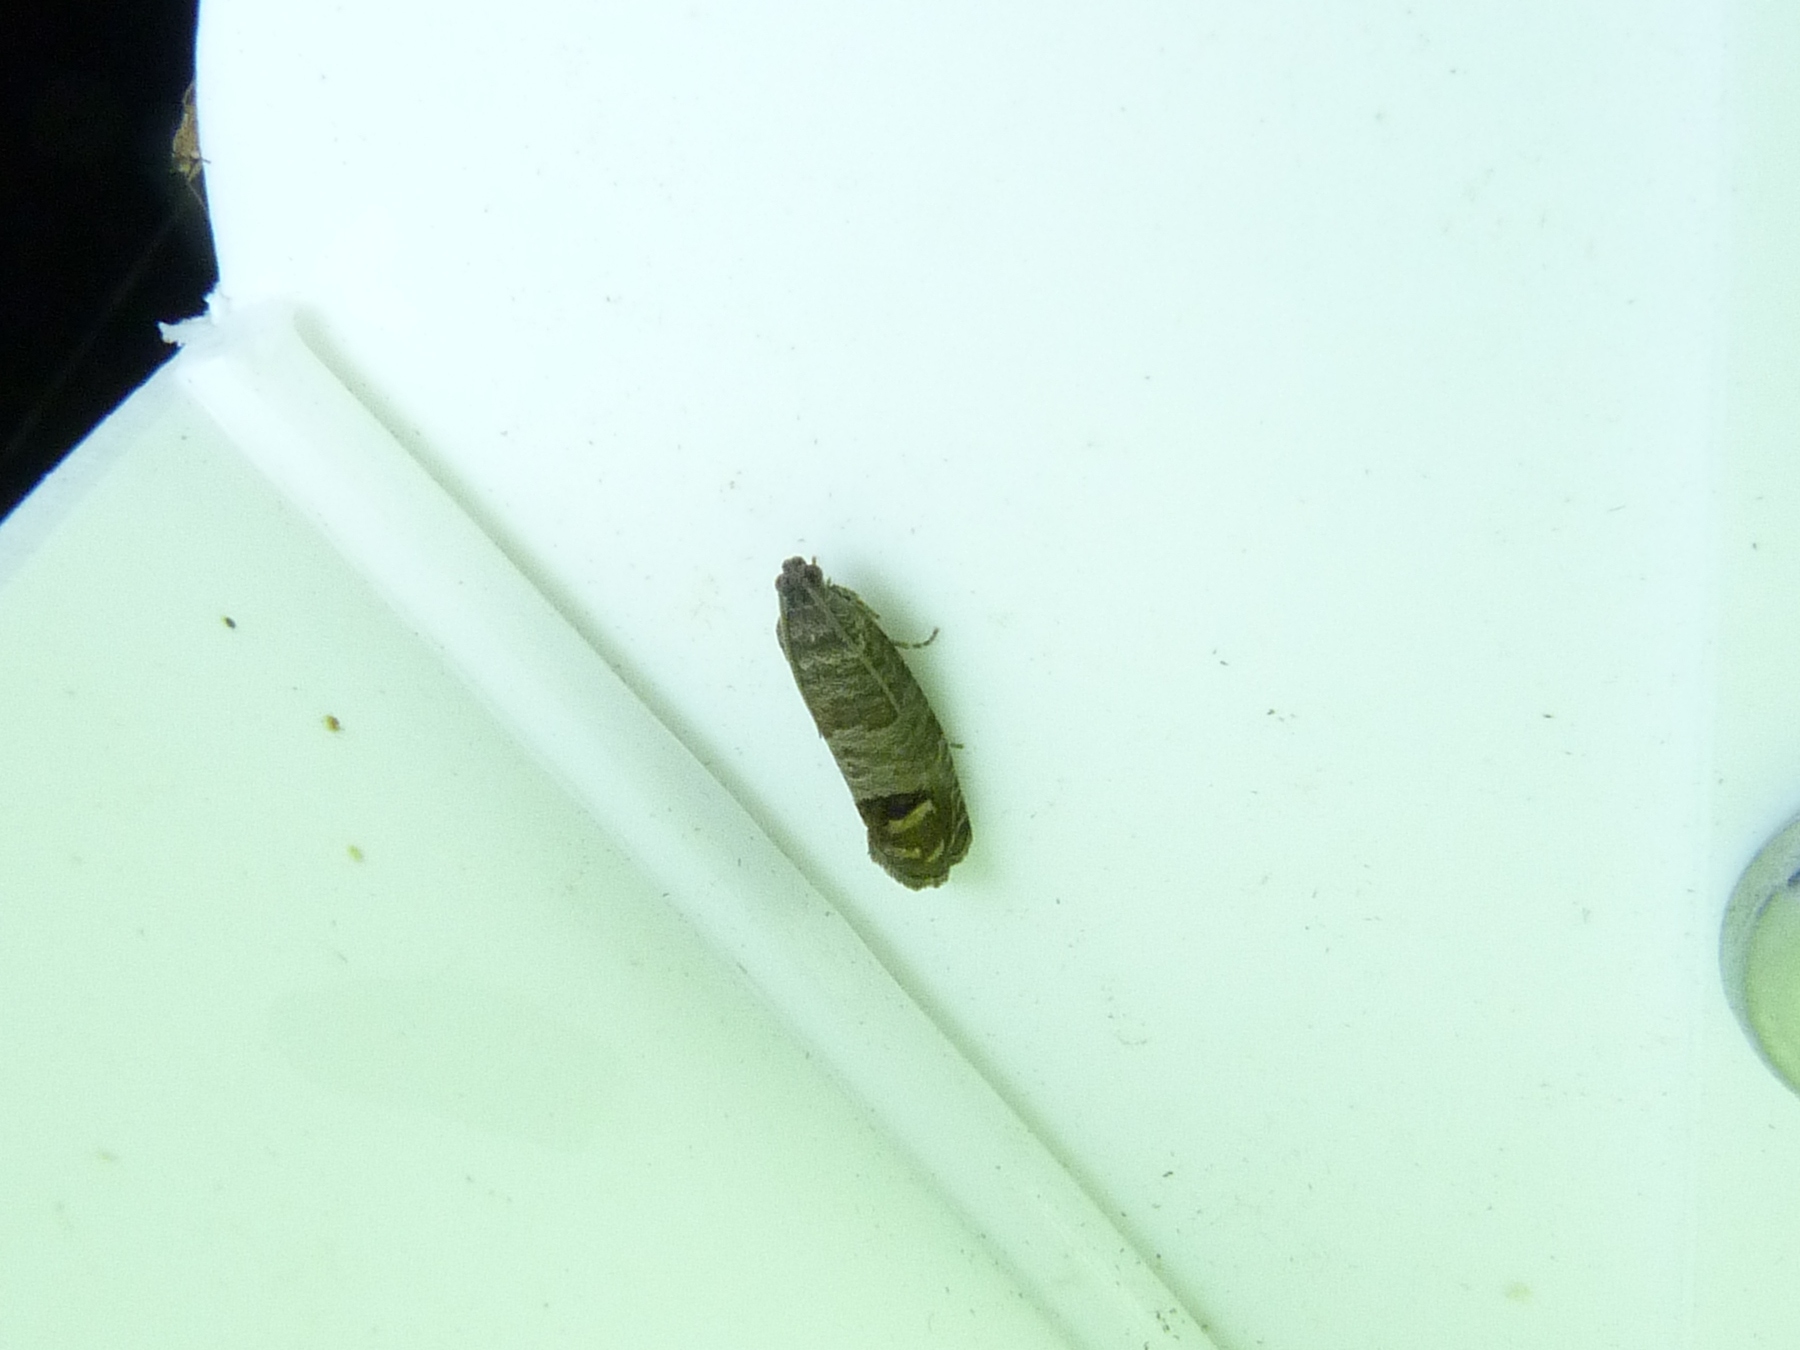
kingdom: Animalia
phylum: Arthropoda
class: Insecta
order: Lepidoptera
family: Tortricidae
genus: Cydia
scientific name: Cydia pomonella
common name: Codling moth
